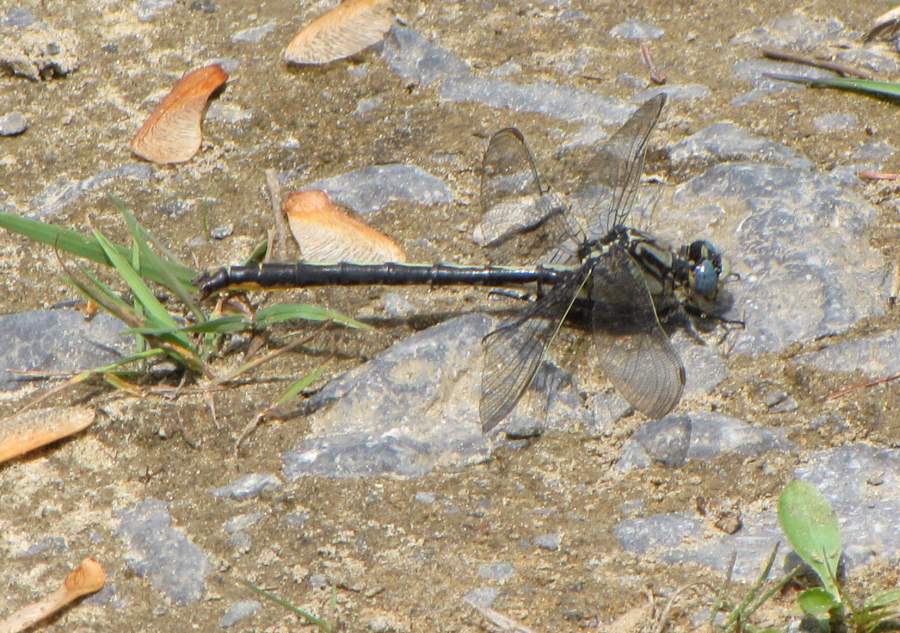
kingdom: Animalia
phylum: Arthropoda
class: Insecta
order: Odonata
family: Gomphidae
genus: Arigomphus
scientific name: Arigomphus cornutus
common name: Horned clubtail
